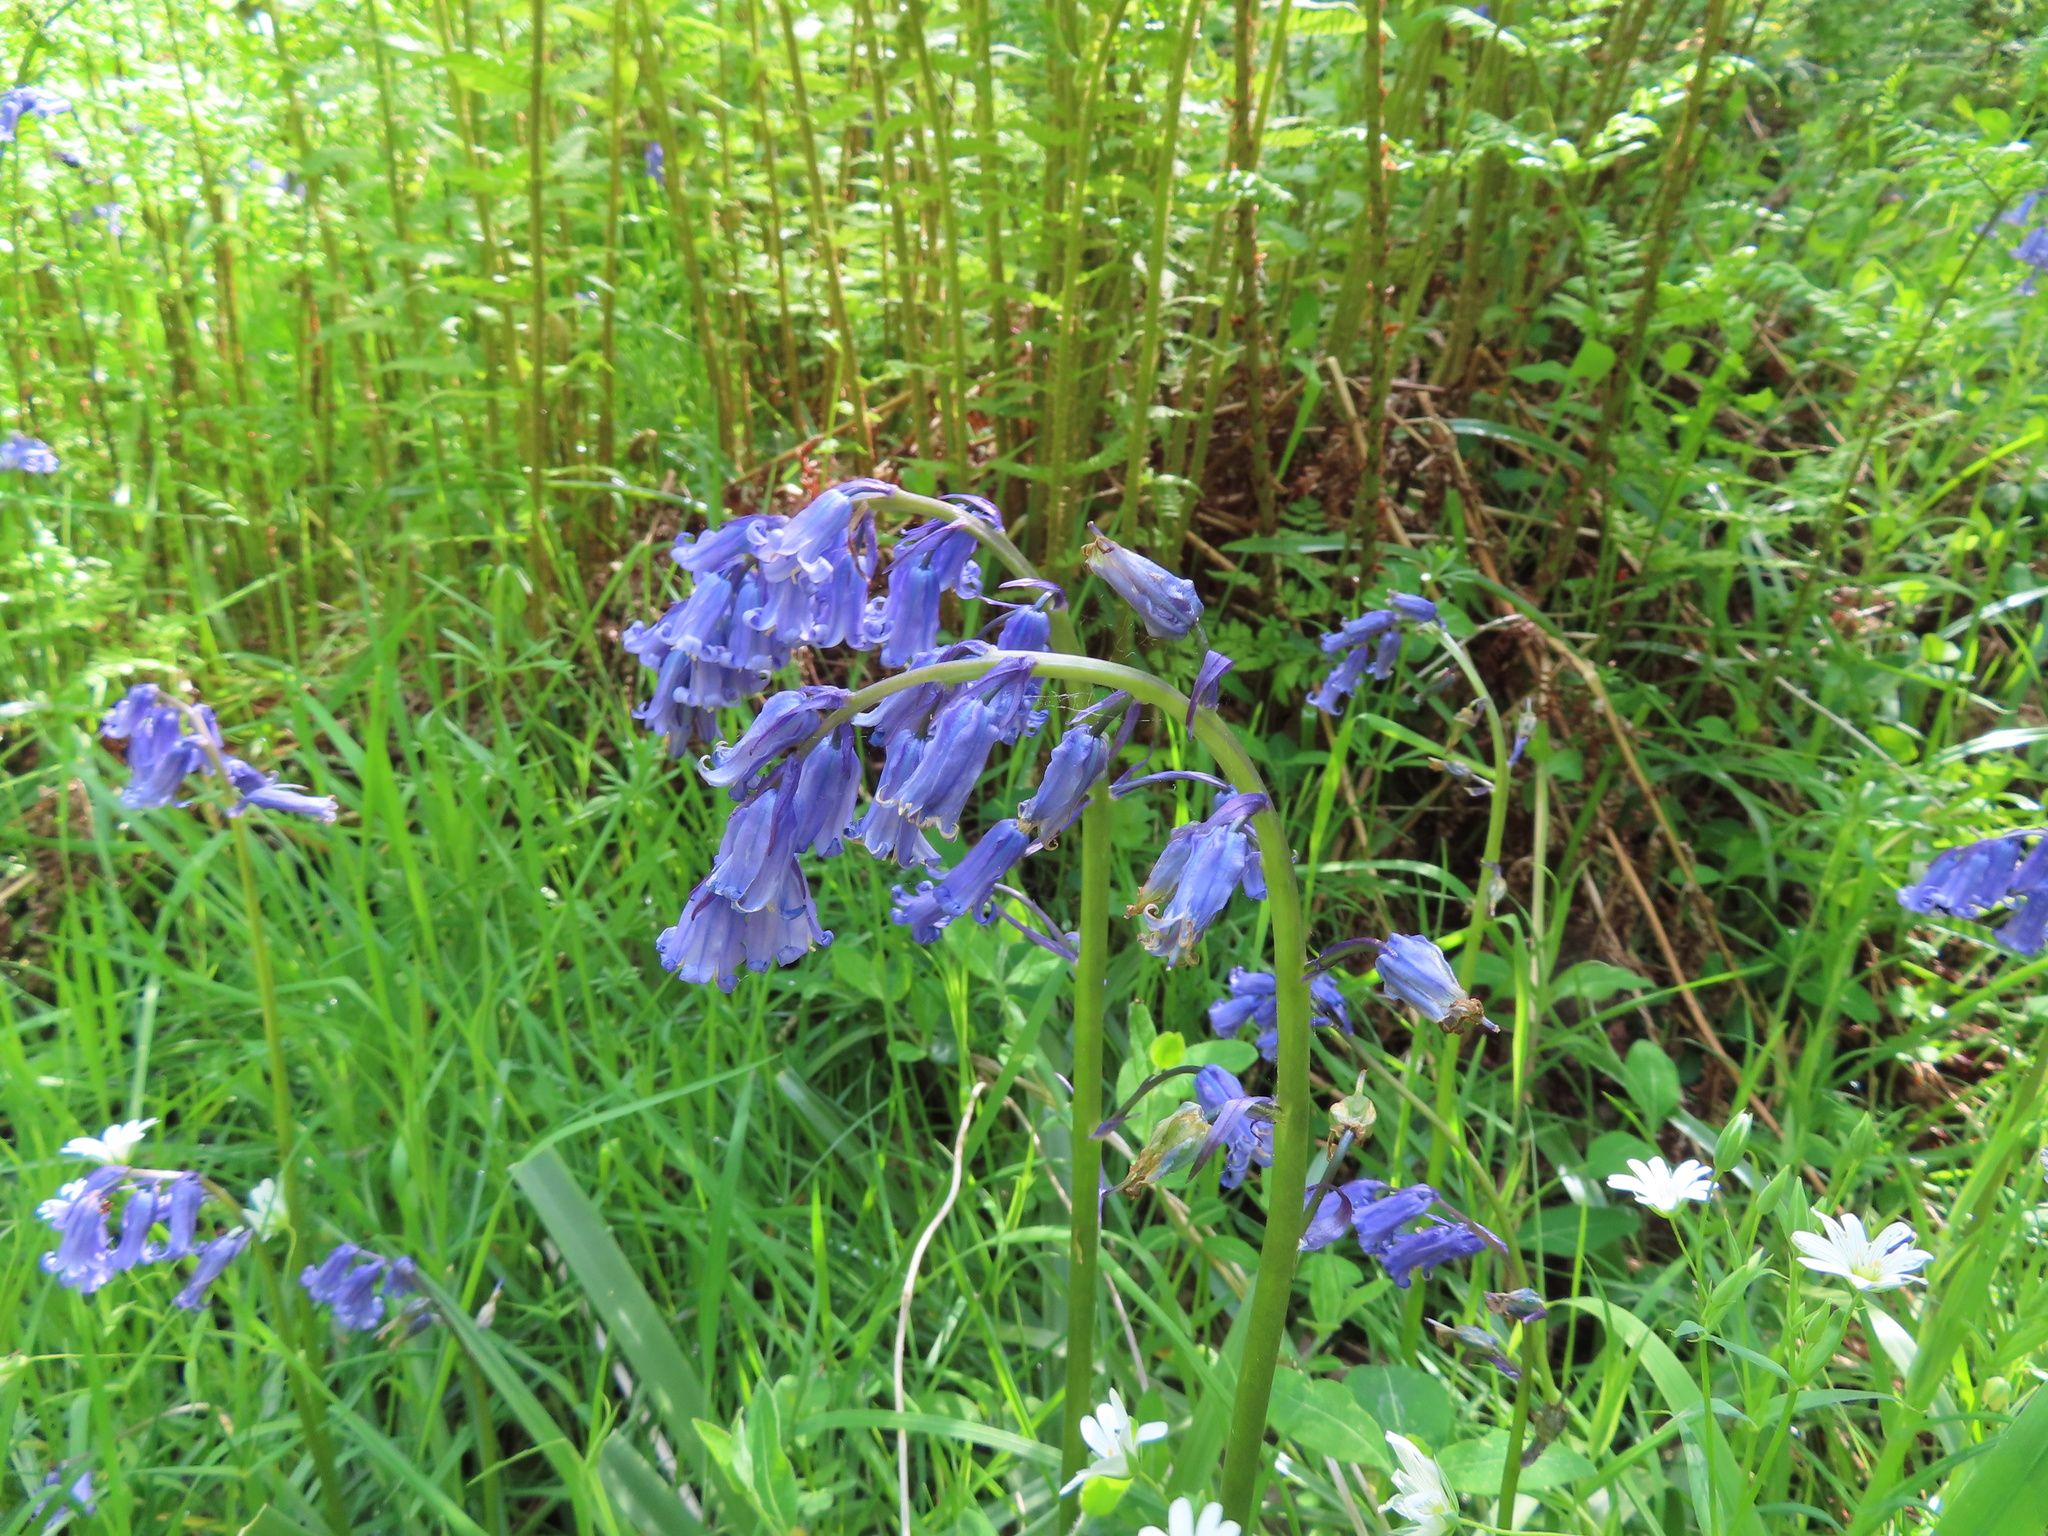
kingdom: Plantae
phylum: Tracheophyta
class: Liliopsida
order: Asparagales
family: Asparagaceae
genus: Hyacinthoides
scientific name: Hyacinthoides non-scripta
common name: Bluebell
